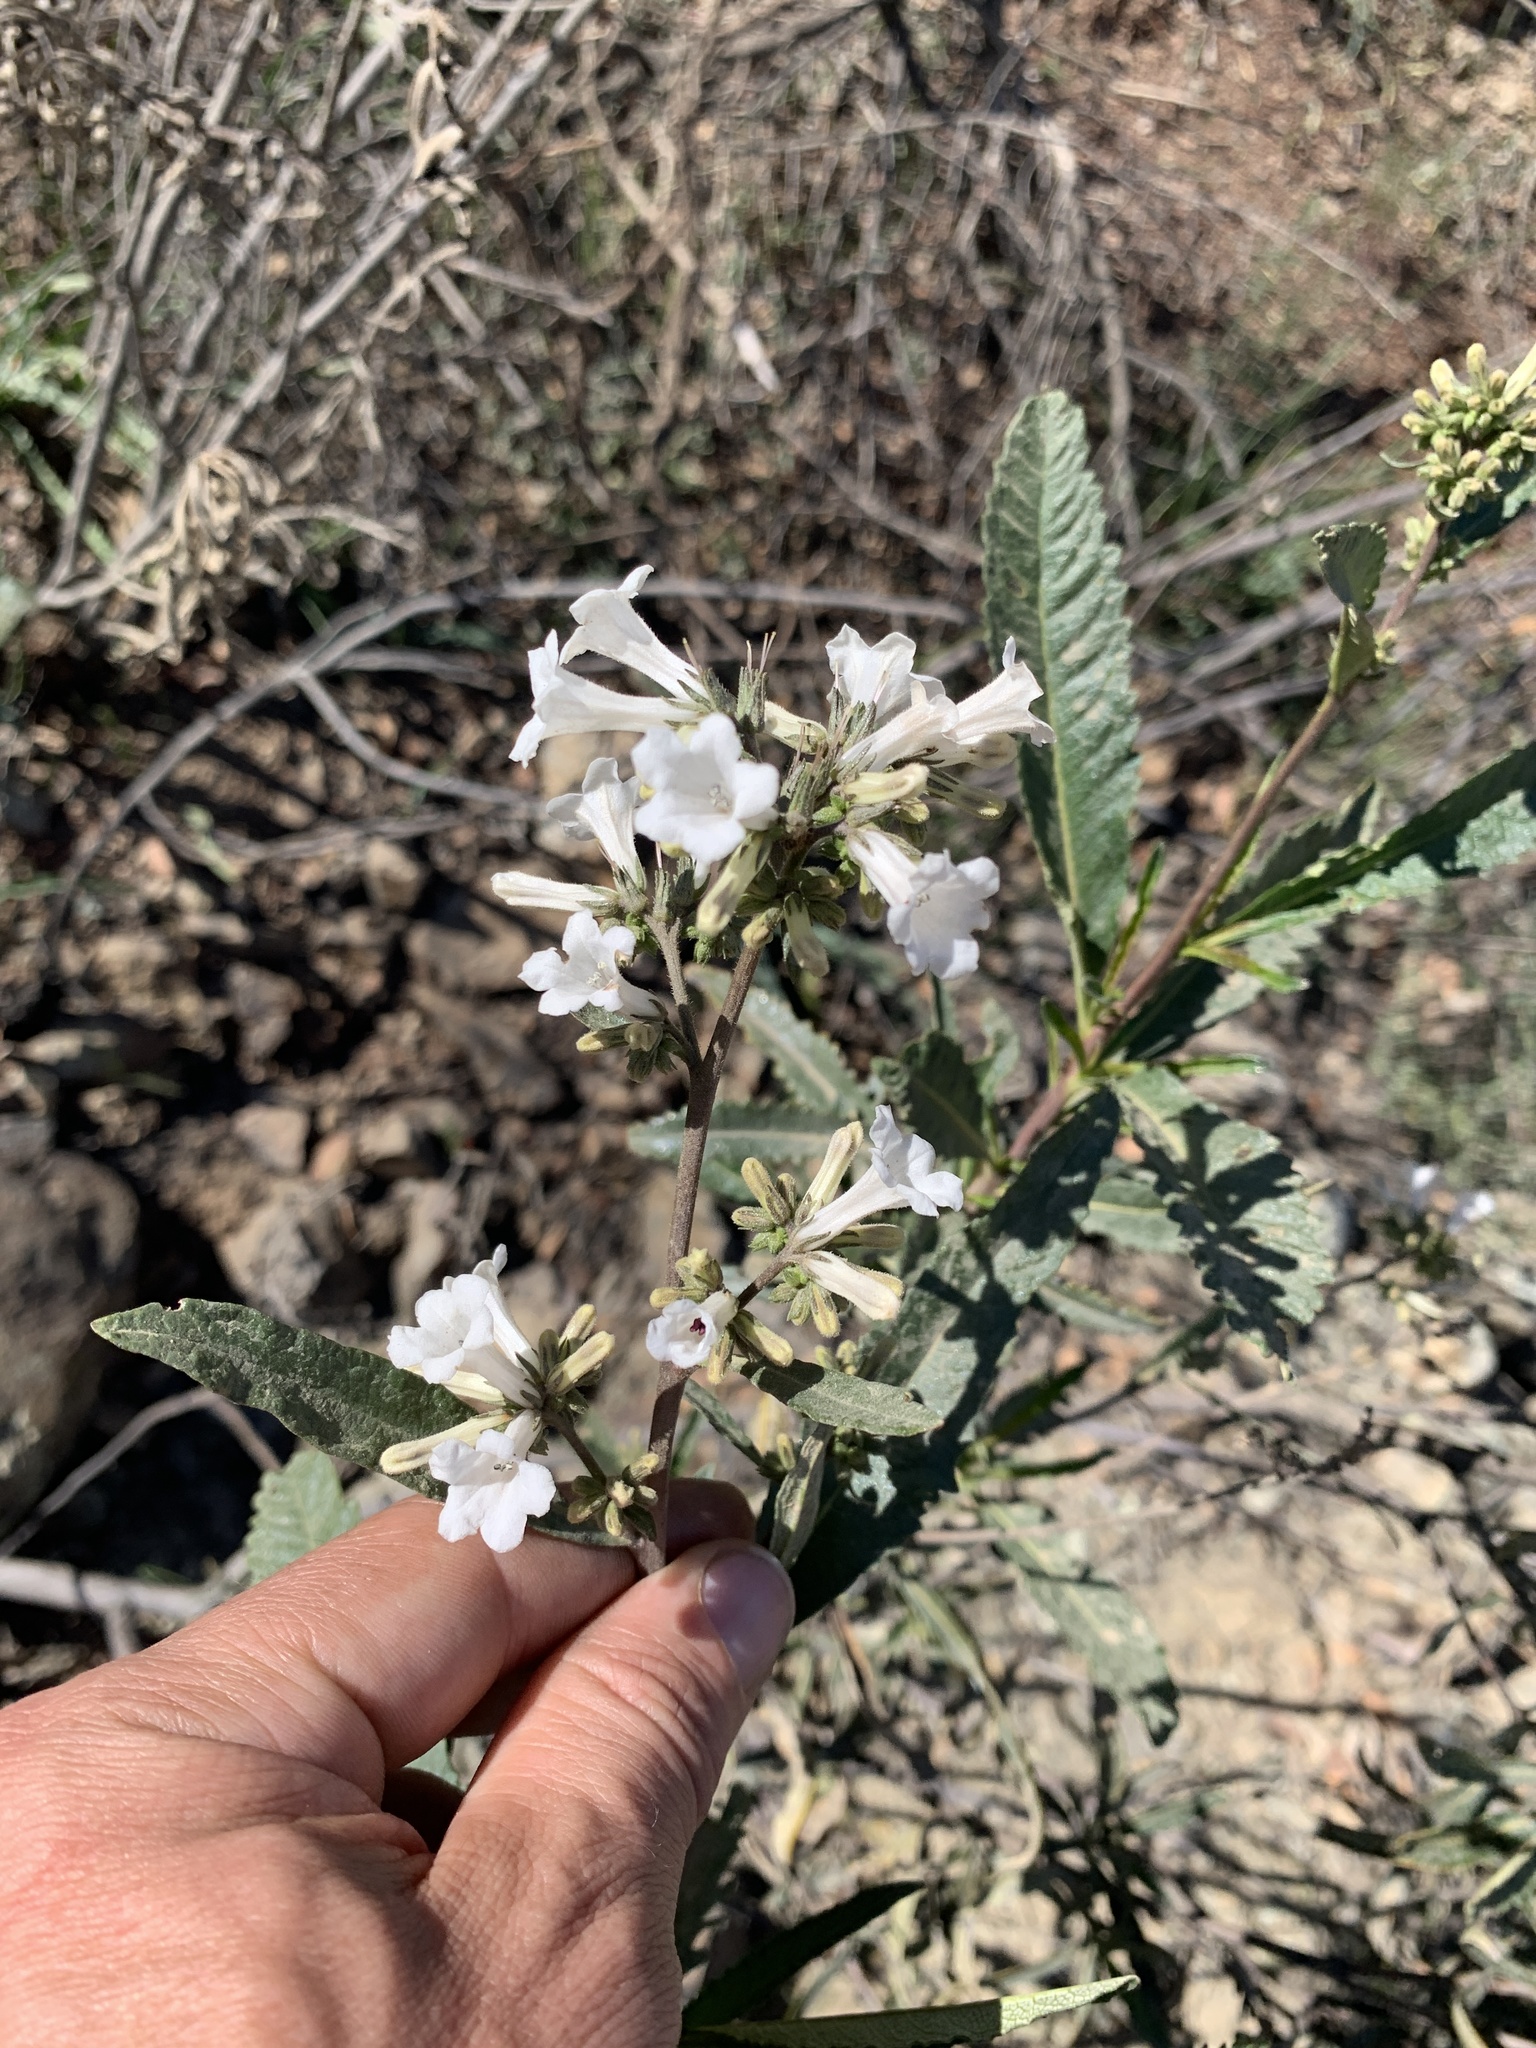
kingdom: Plantae
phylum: Tracheophyta
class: Magnoliopsida
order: Boraginales
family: Namaceae
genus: Eriodictyon
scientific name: Eriodictyon californicum
